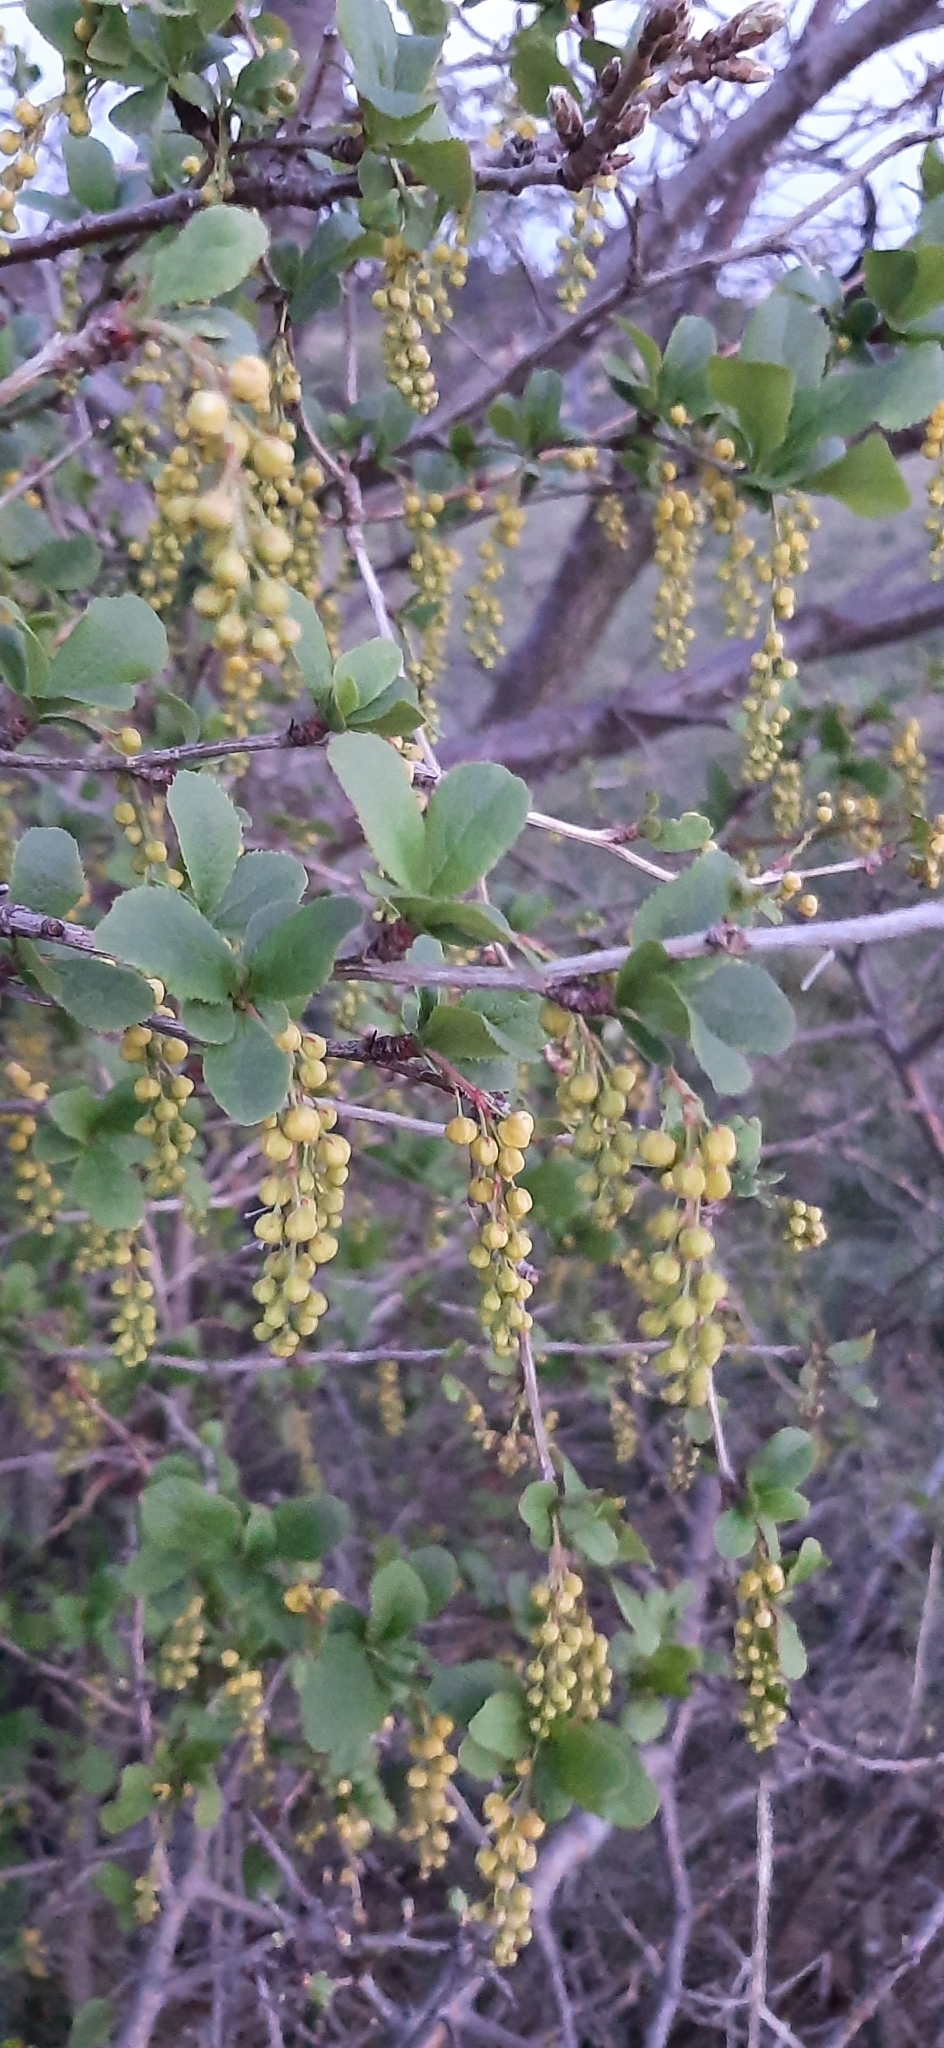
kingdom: Plantae
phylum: Tracheophyta
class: Magnoliopsida
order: Ranunculales
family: Berberidaceae
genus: Berberis
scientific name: Berberis vulgaris
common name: Barberry
